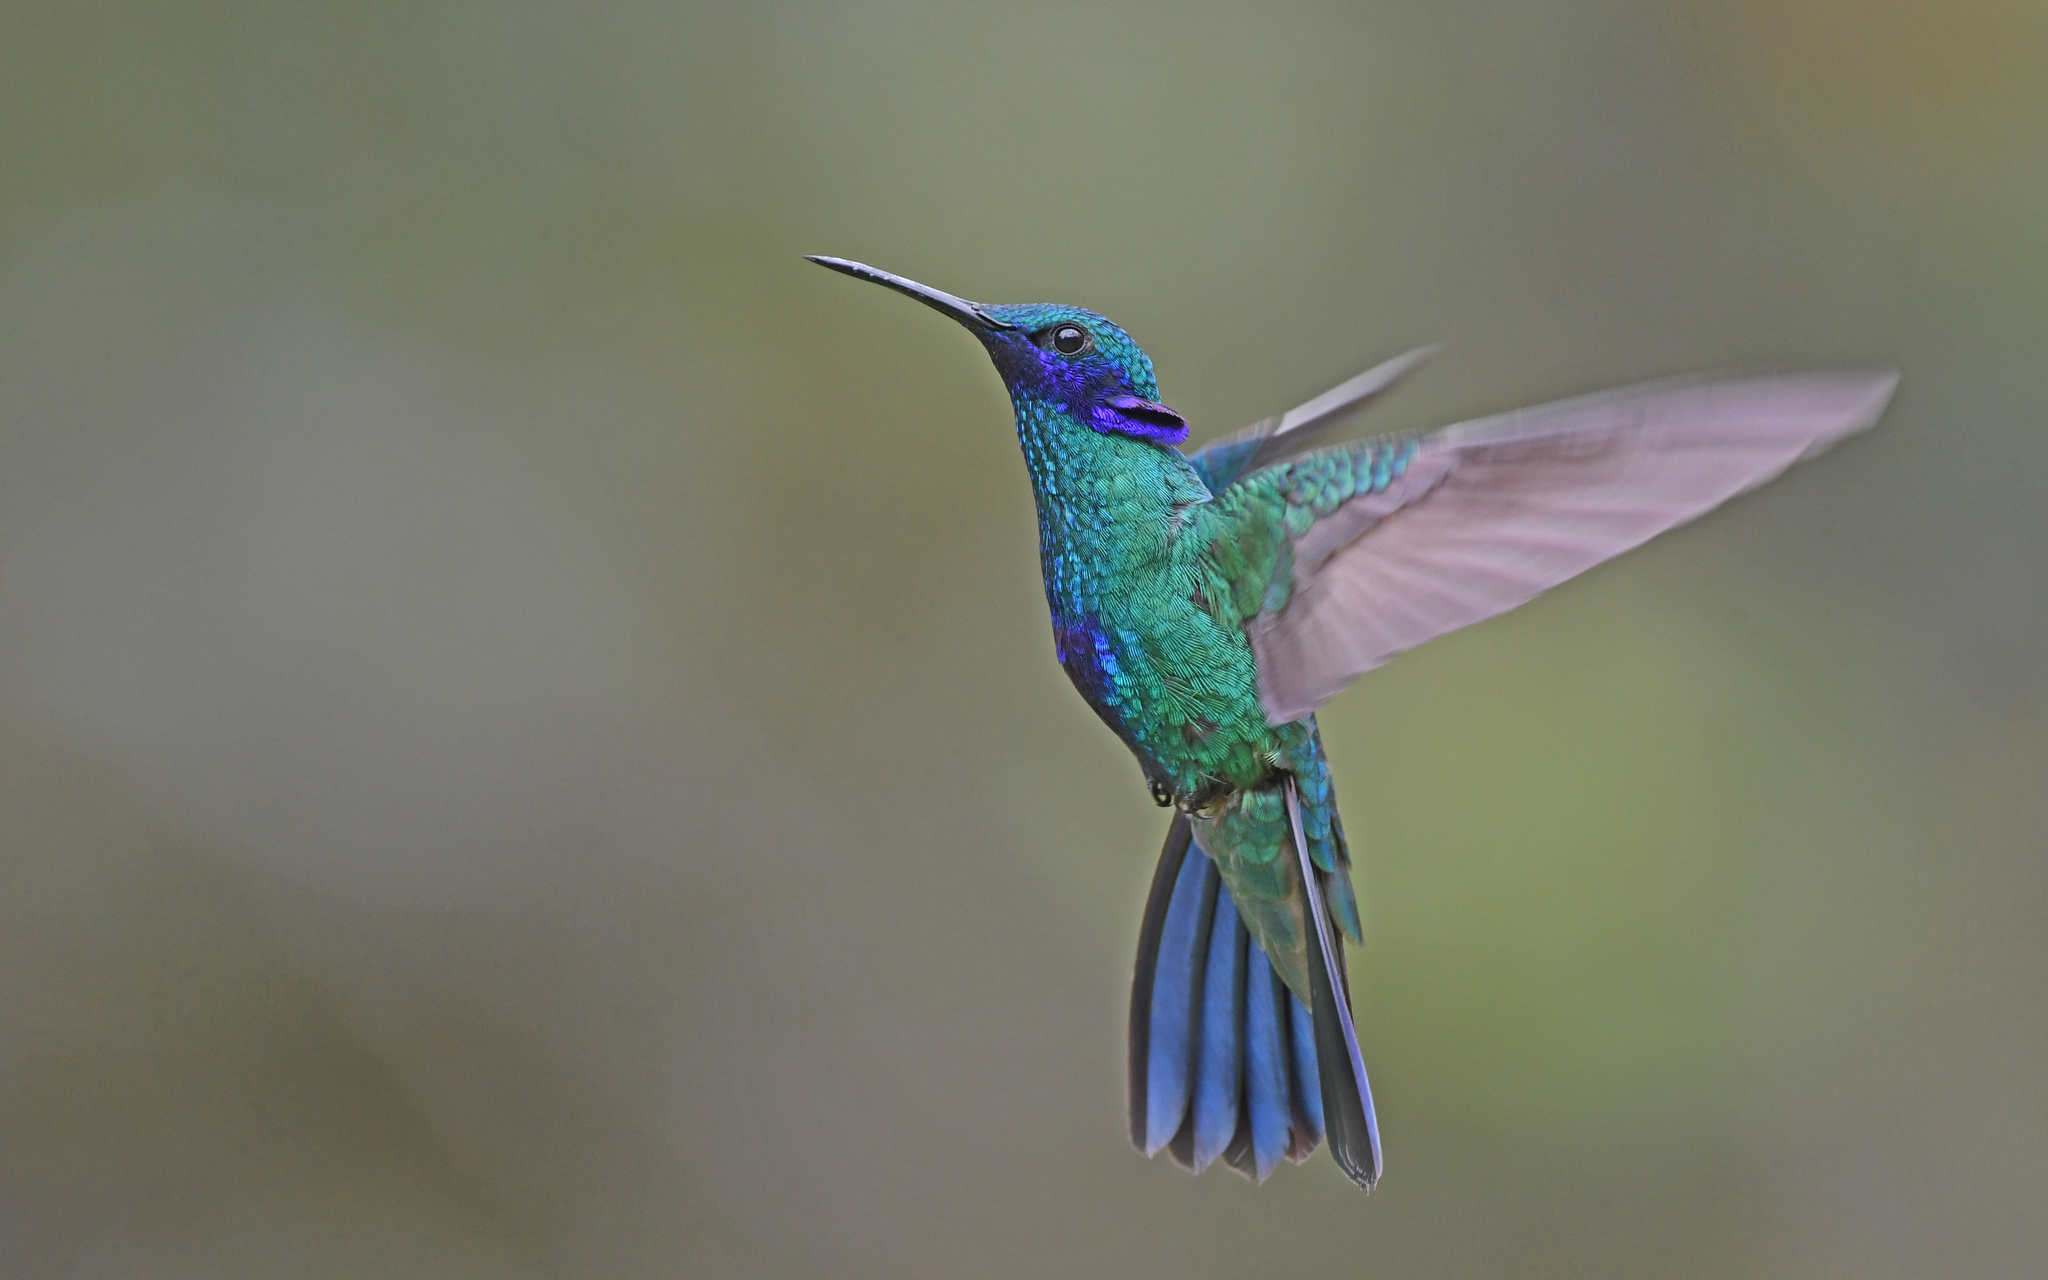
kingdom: Animalia
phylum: Chordata
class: Aves
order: Apodiformes
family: Trochilidae
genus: Colibri
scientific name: Colibri coruscans
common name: Sparkling violetear
